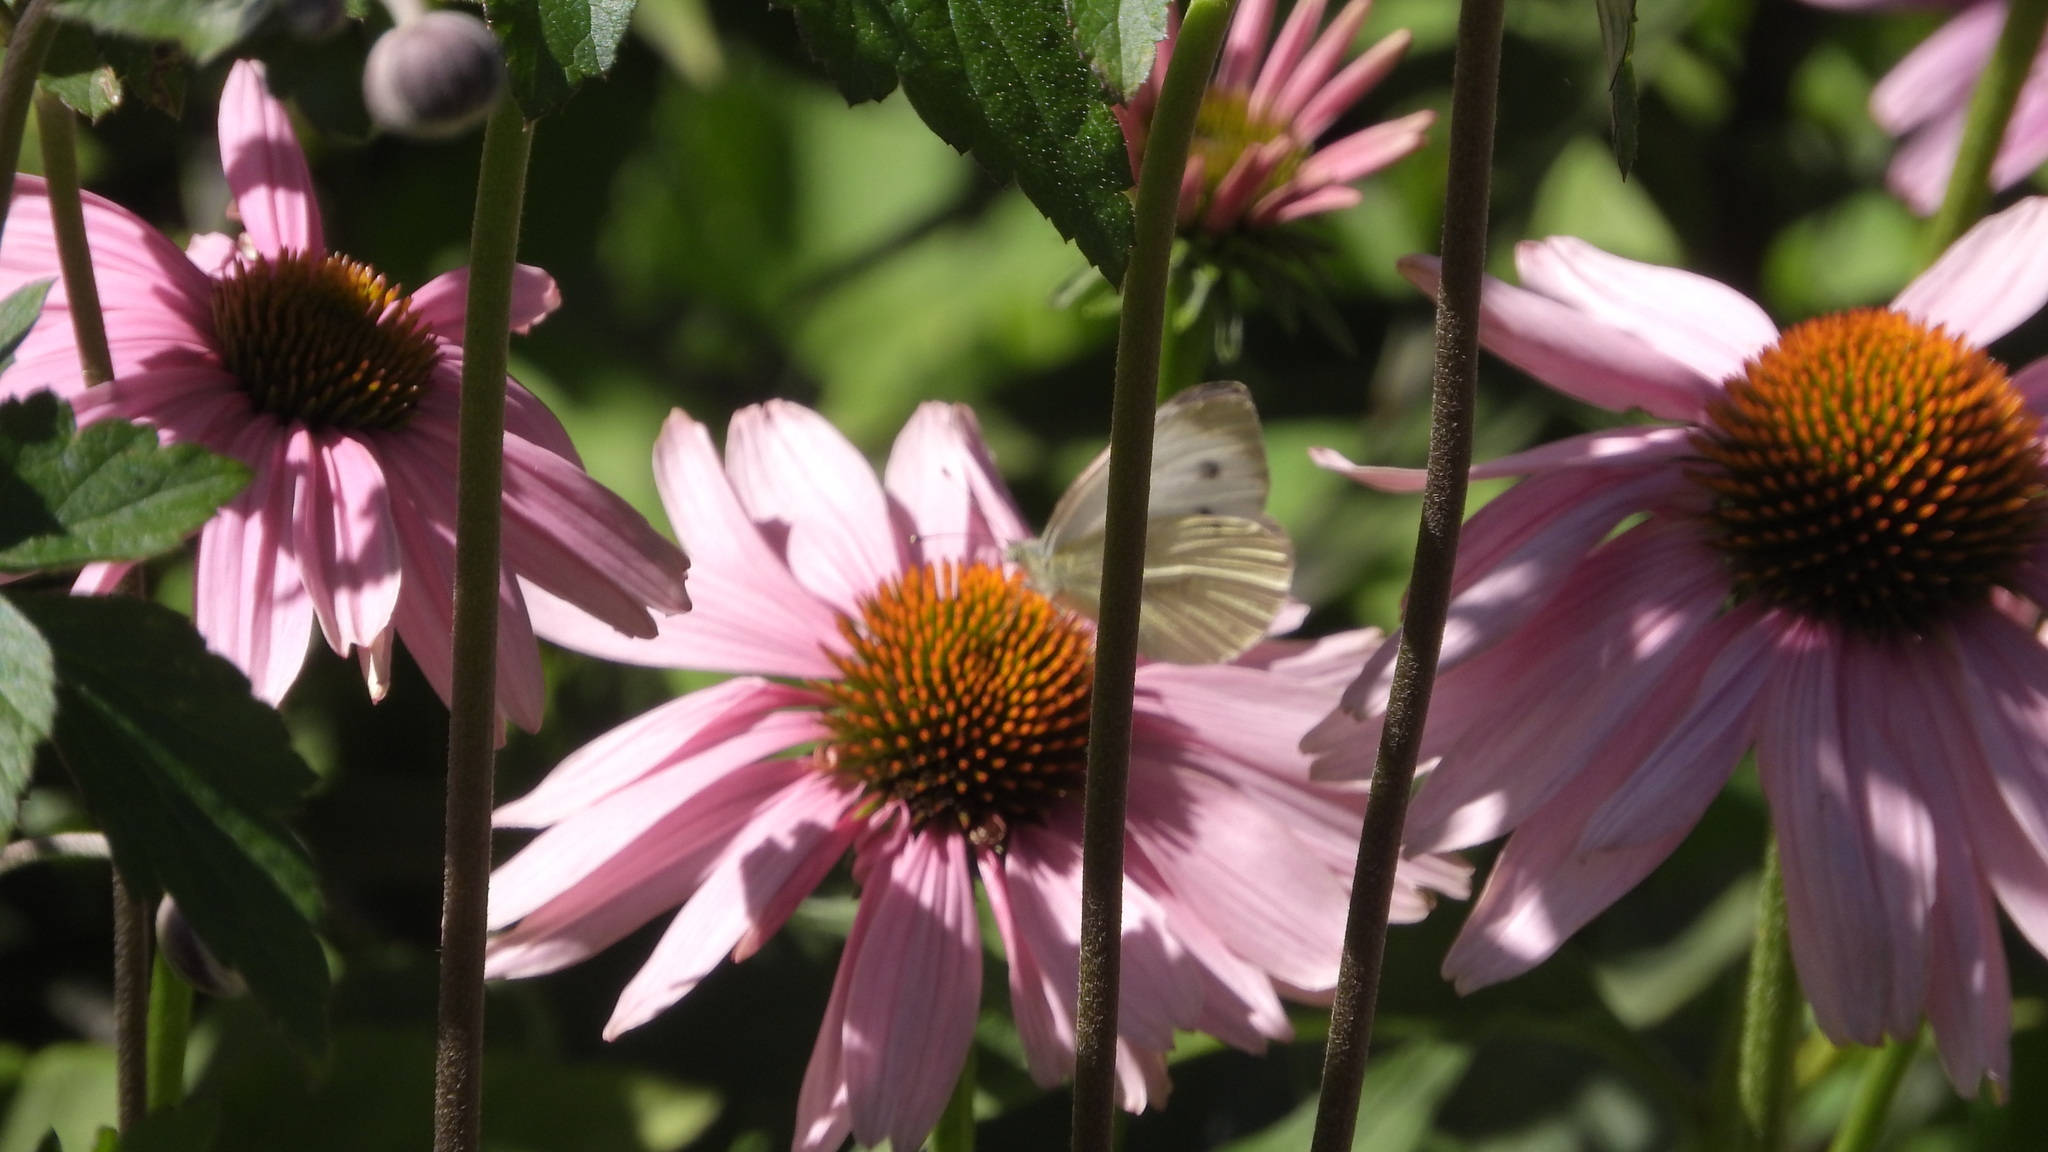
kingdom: Animalia
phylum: Arthropoda
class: Insecta
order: Lepidoptera
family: Pieridae
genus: Pieris
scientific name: Pieris napi
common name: Green-veined white
